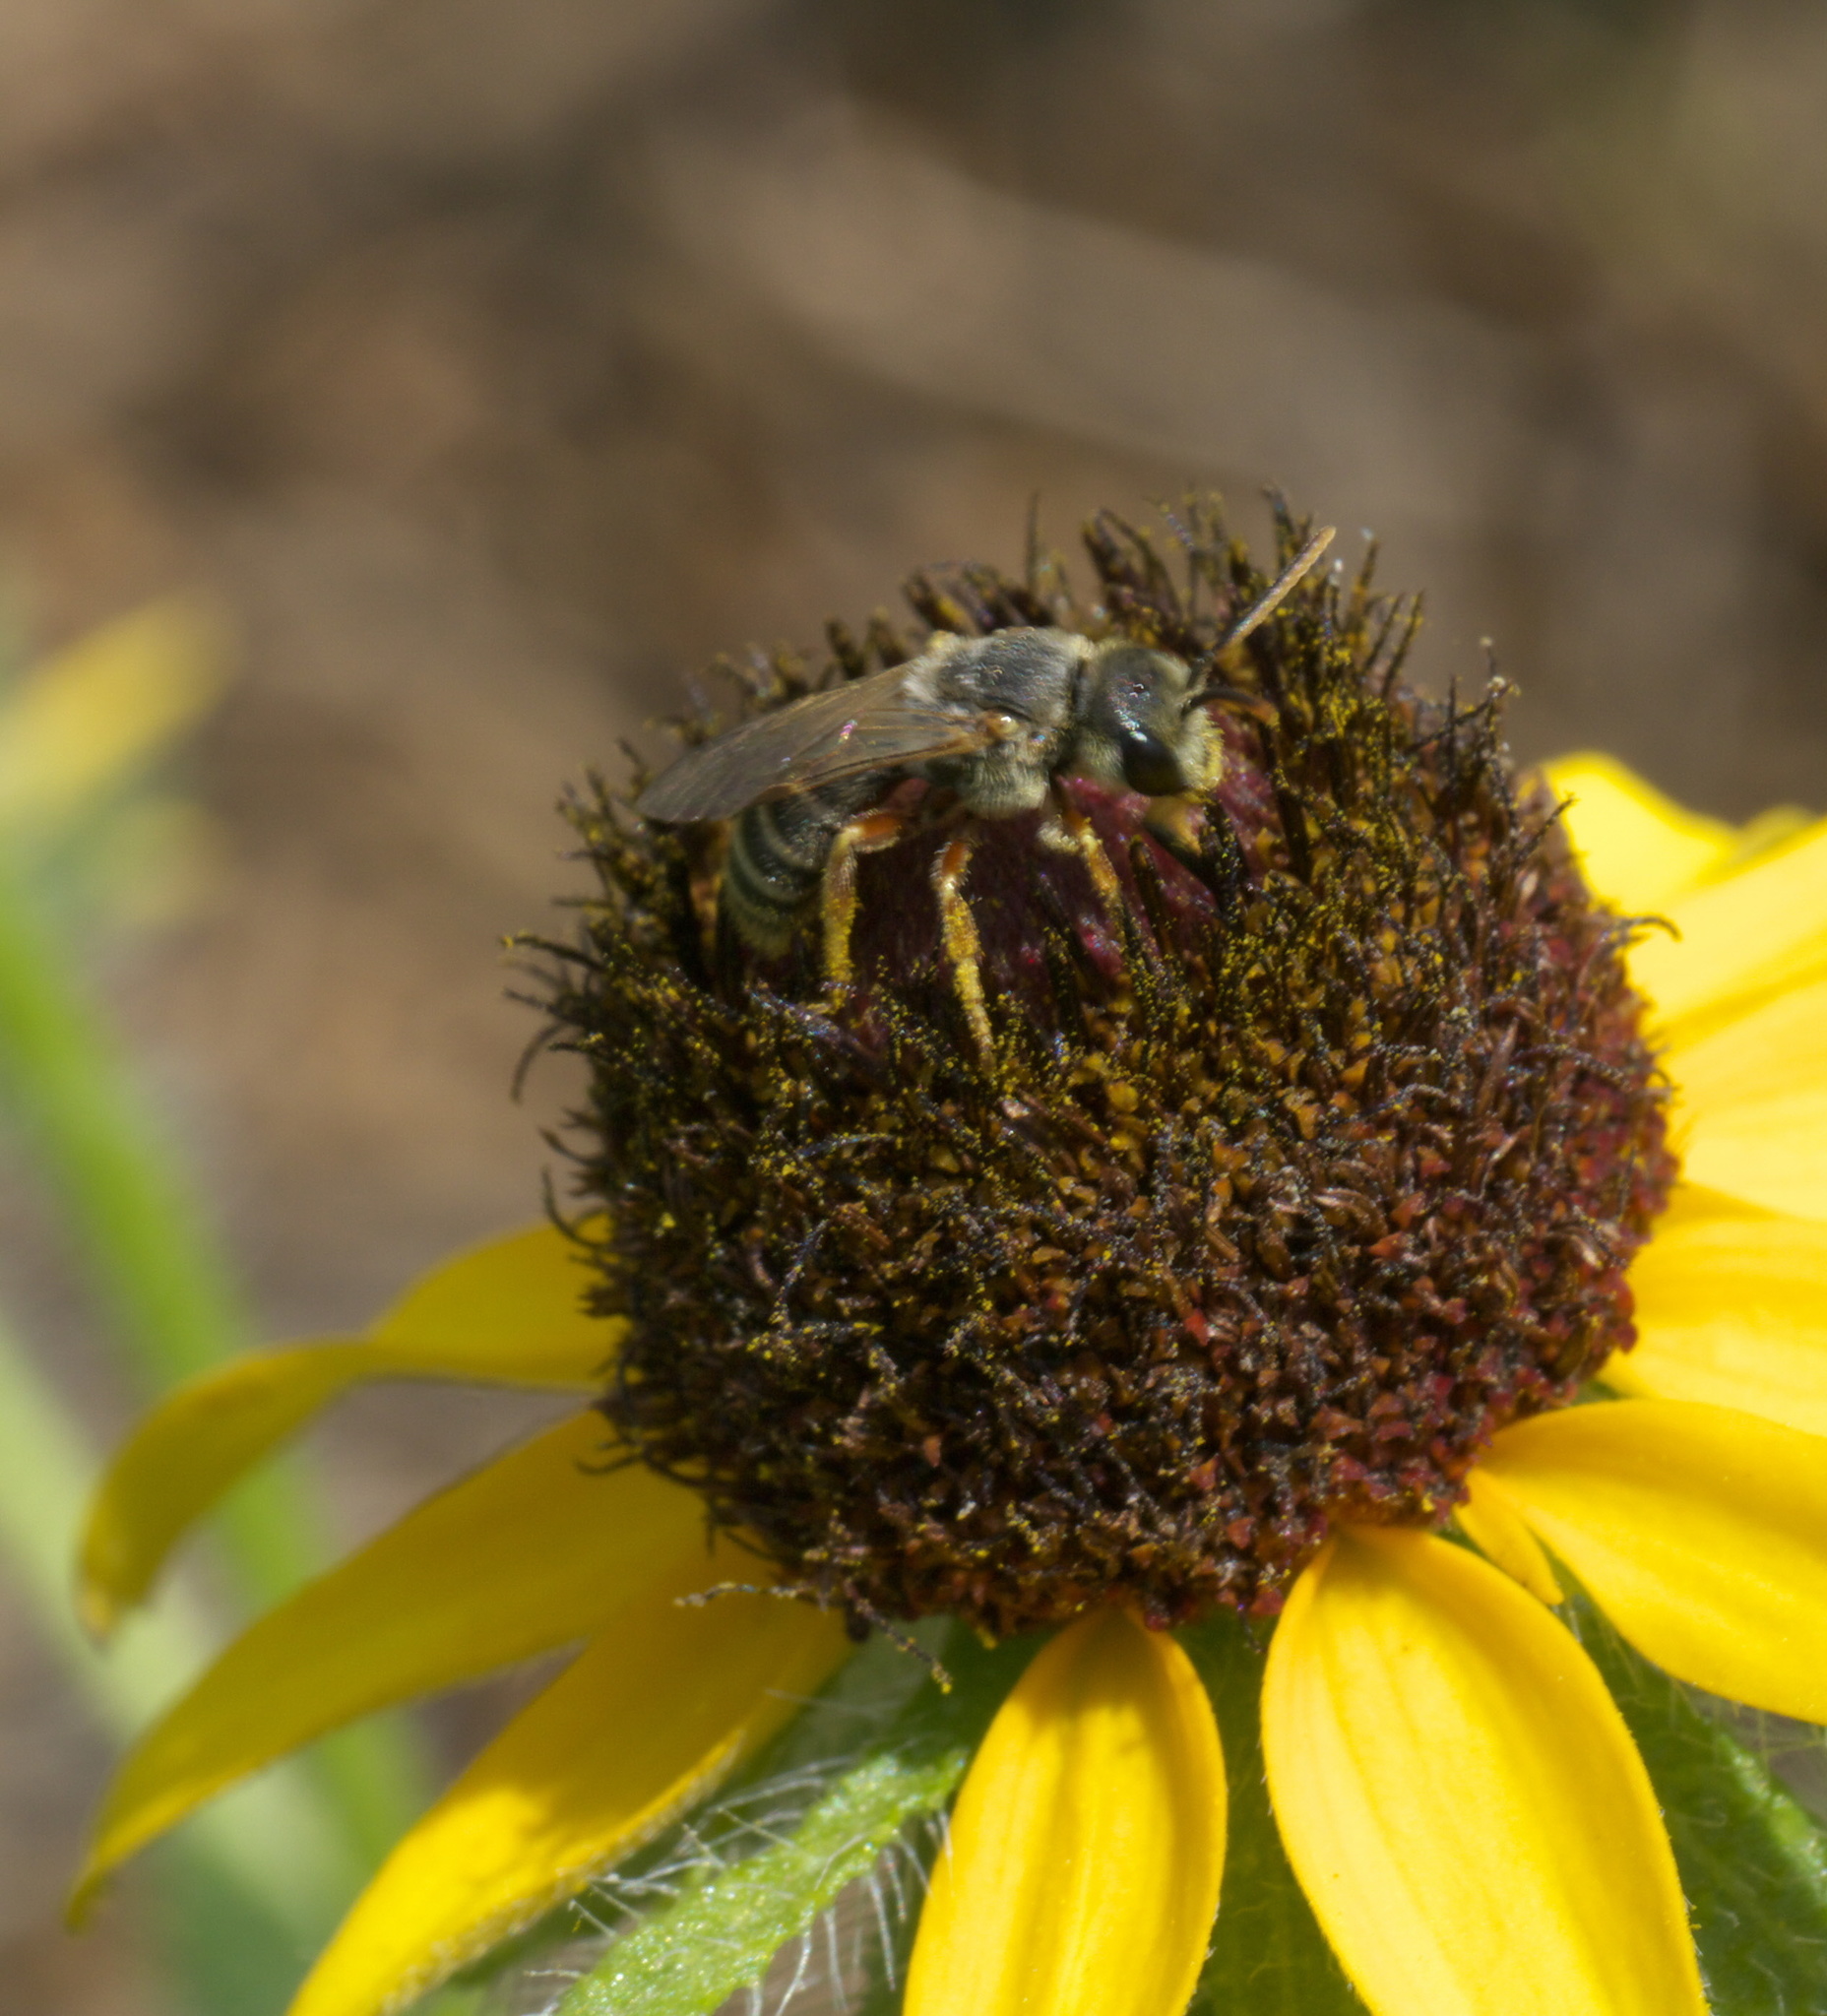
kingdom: Animalia
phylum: Arthropoda
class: Insecta
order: Hymenoptera
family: Halictidae
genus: Halictus
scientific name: Halictus ligatus
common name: Ligated furrow bee
